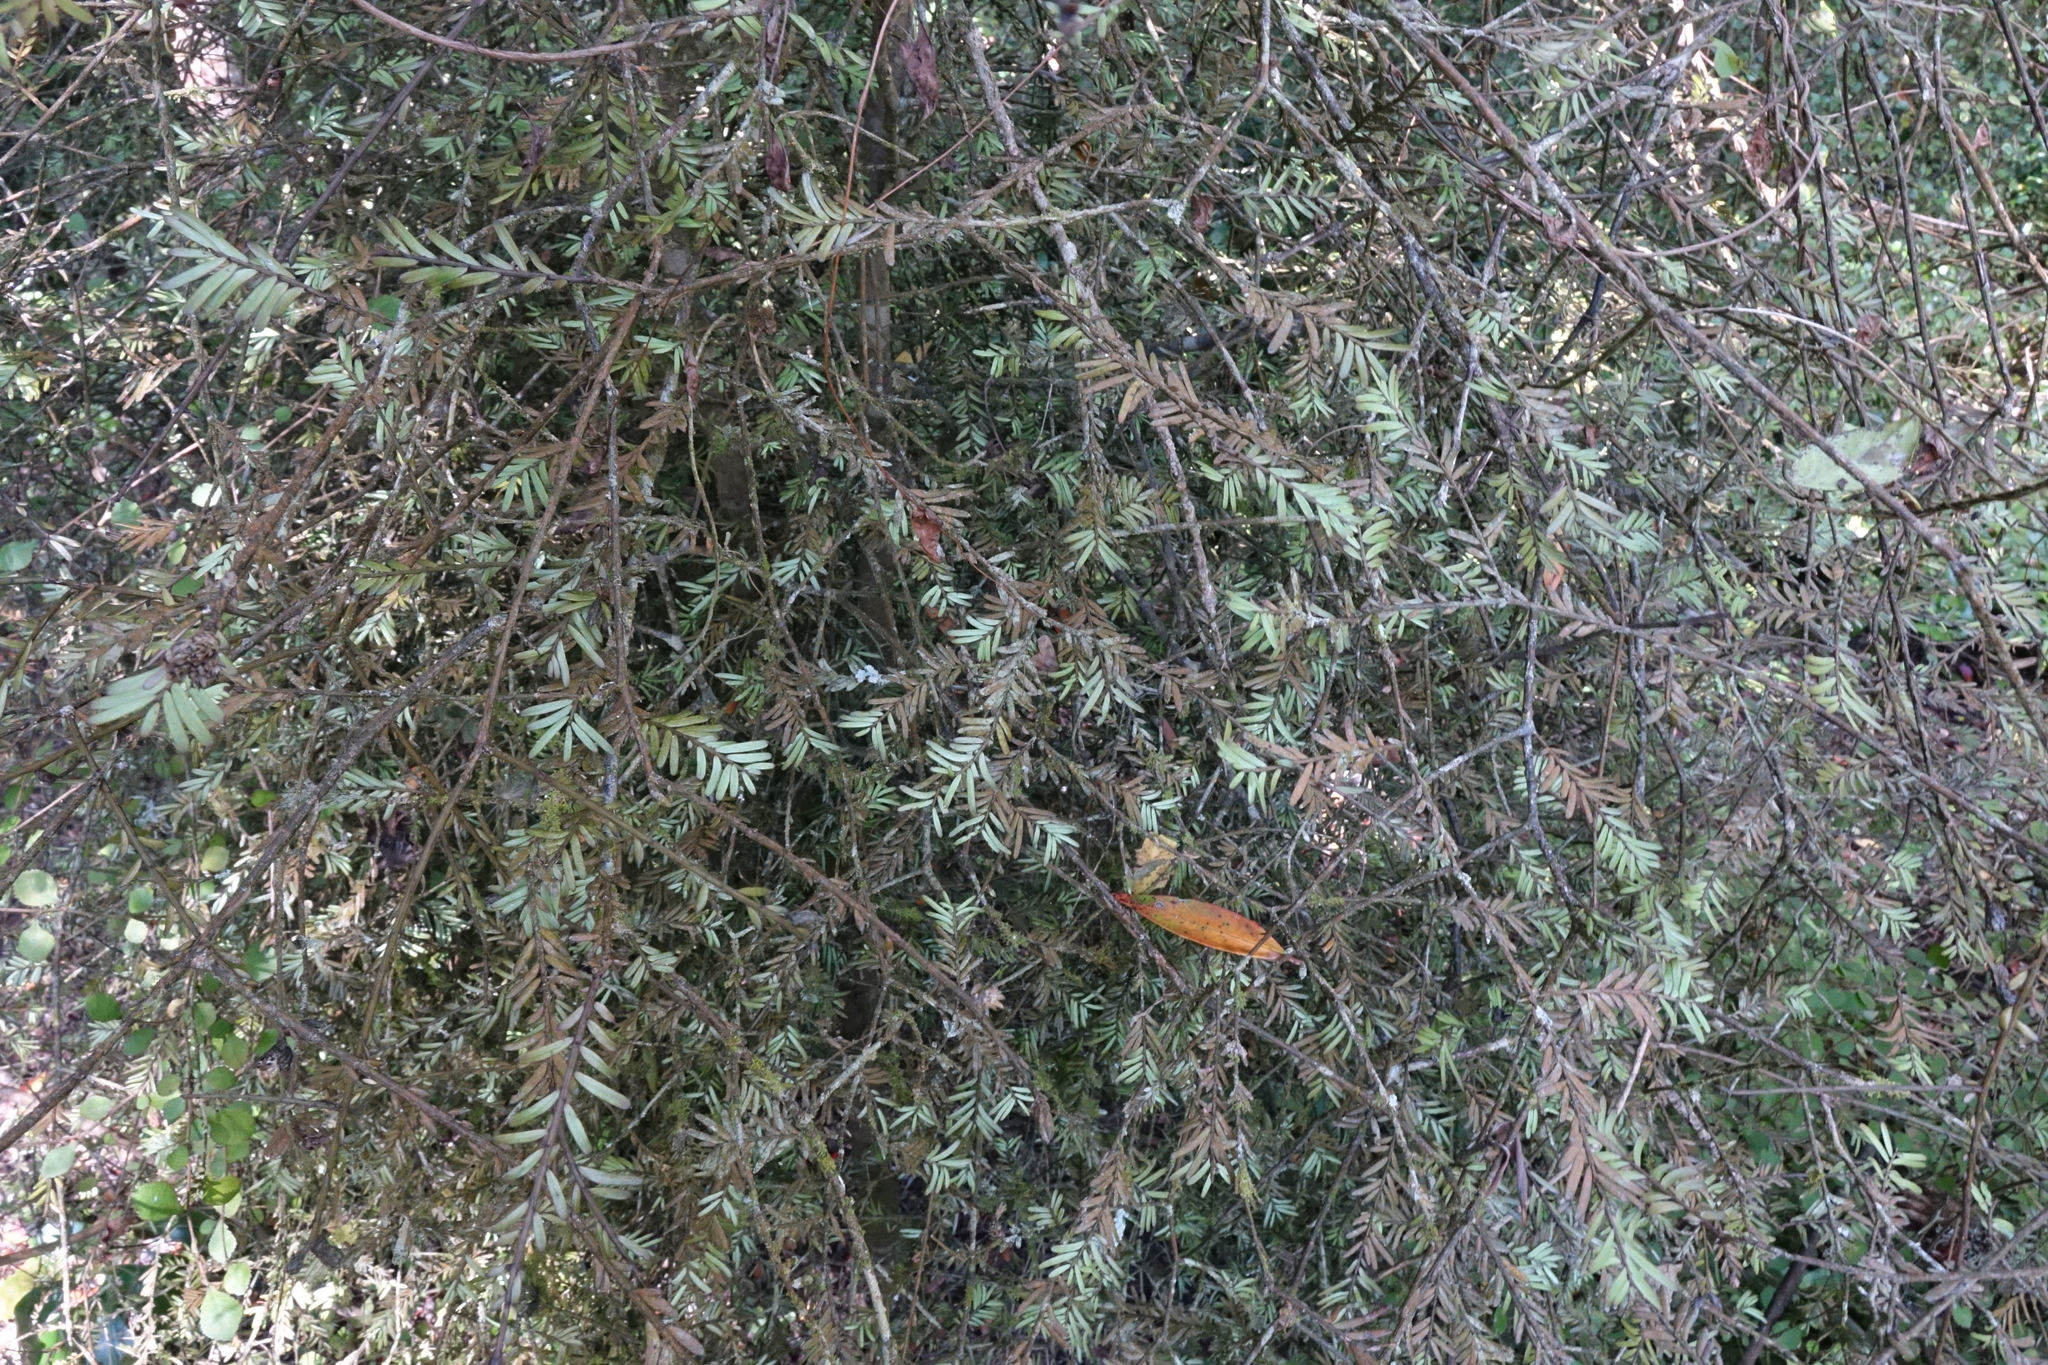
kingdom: Plantae
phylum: Tracheophyta
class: Pinopsida
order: Pinales
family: Podocarpaceae
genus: Prumnopitys
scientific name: Prumnopitys taxifolia
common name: Matai
